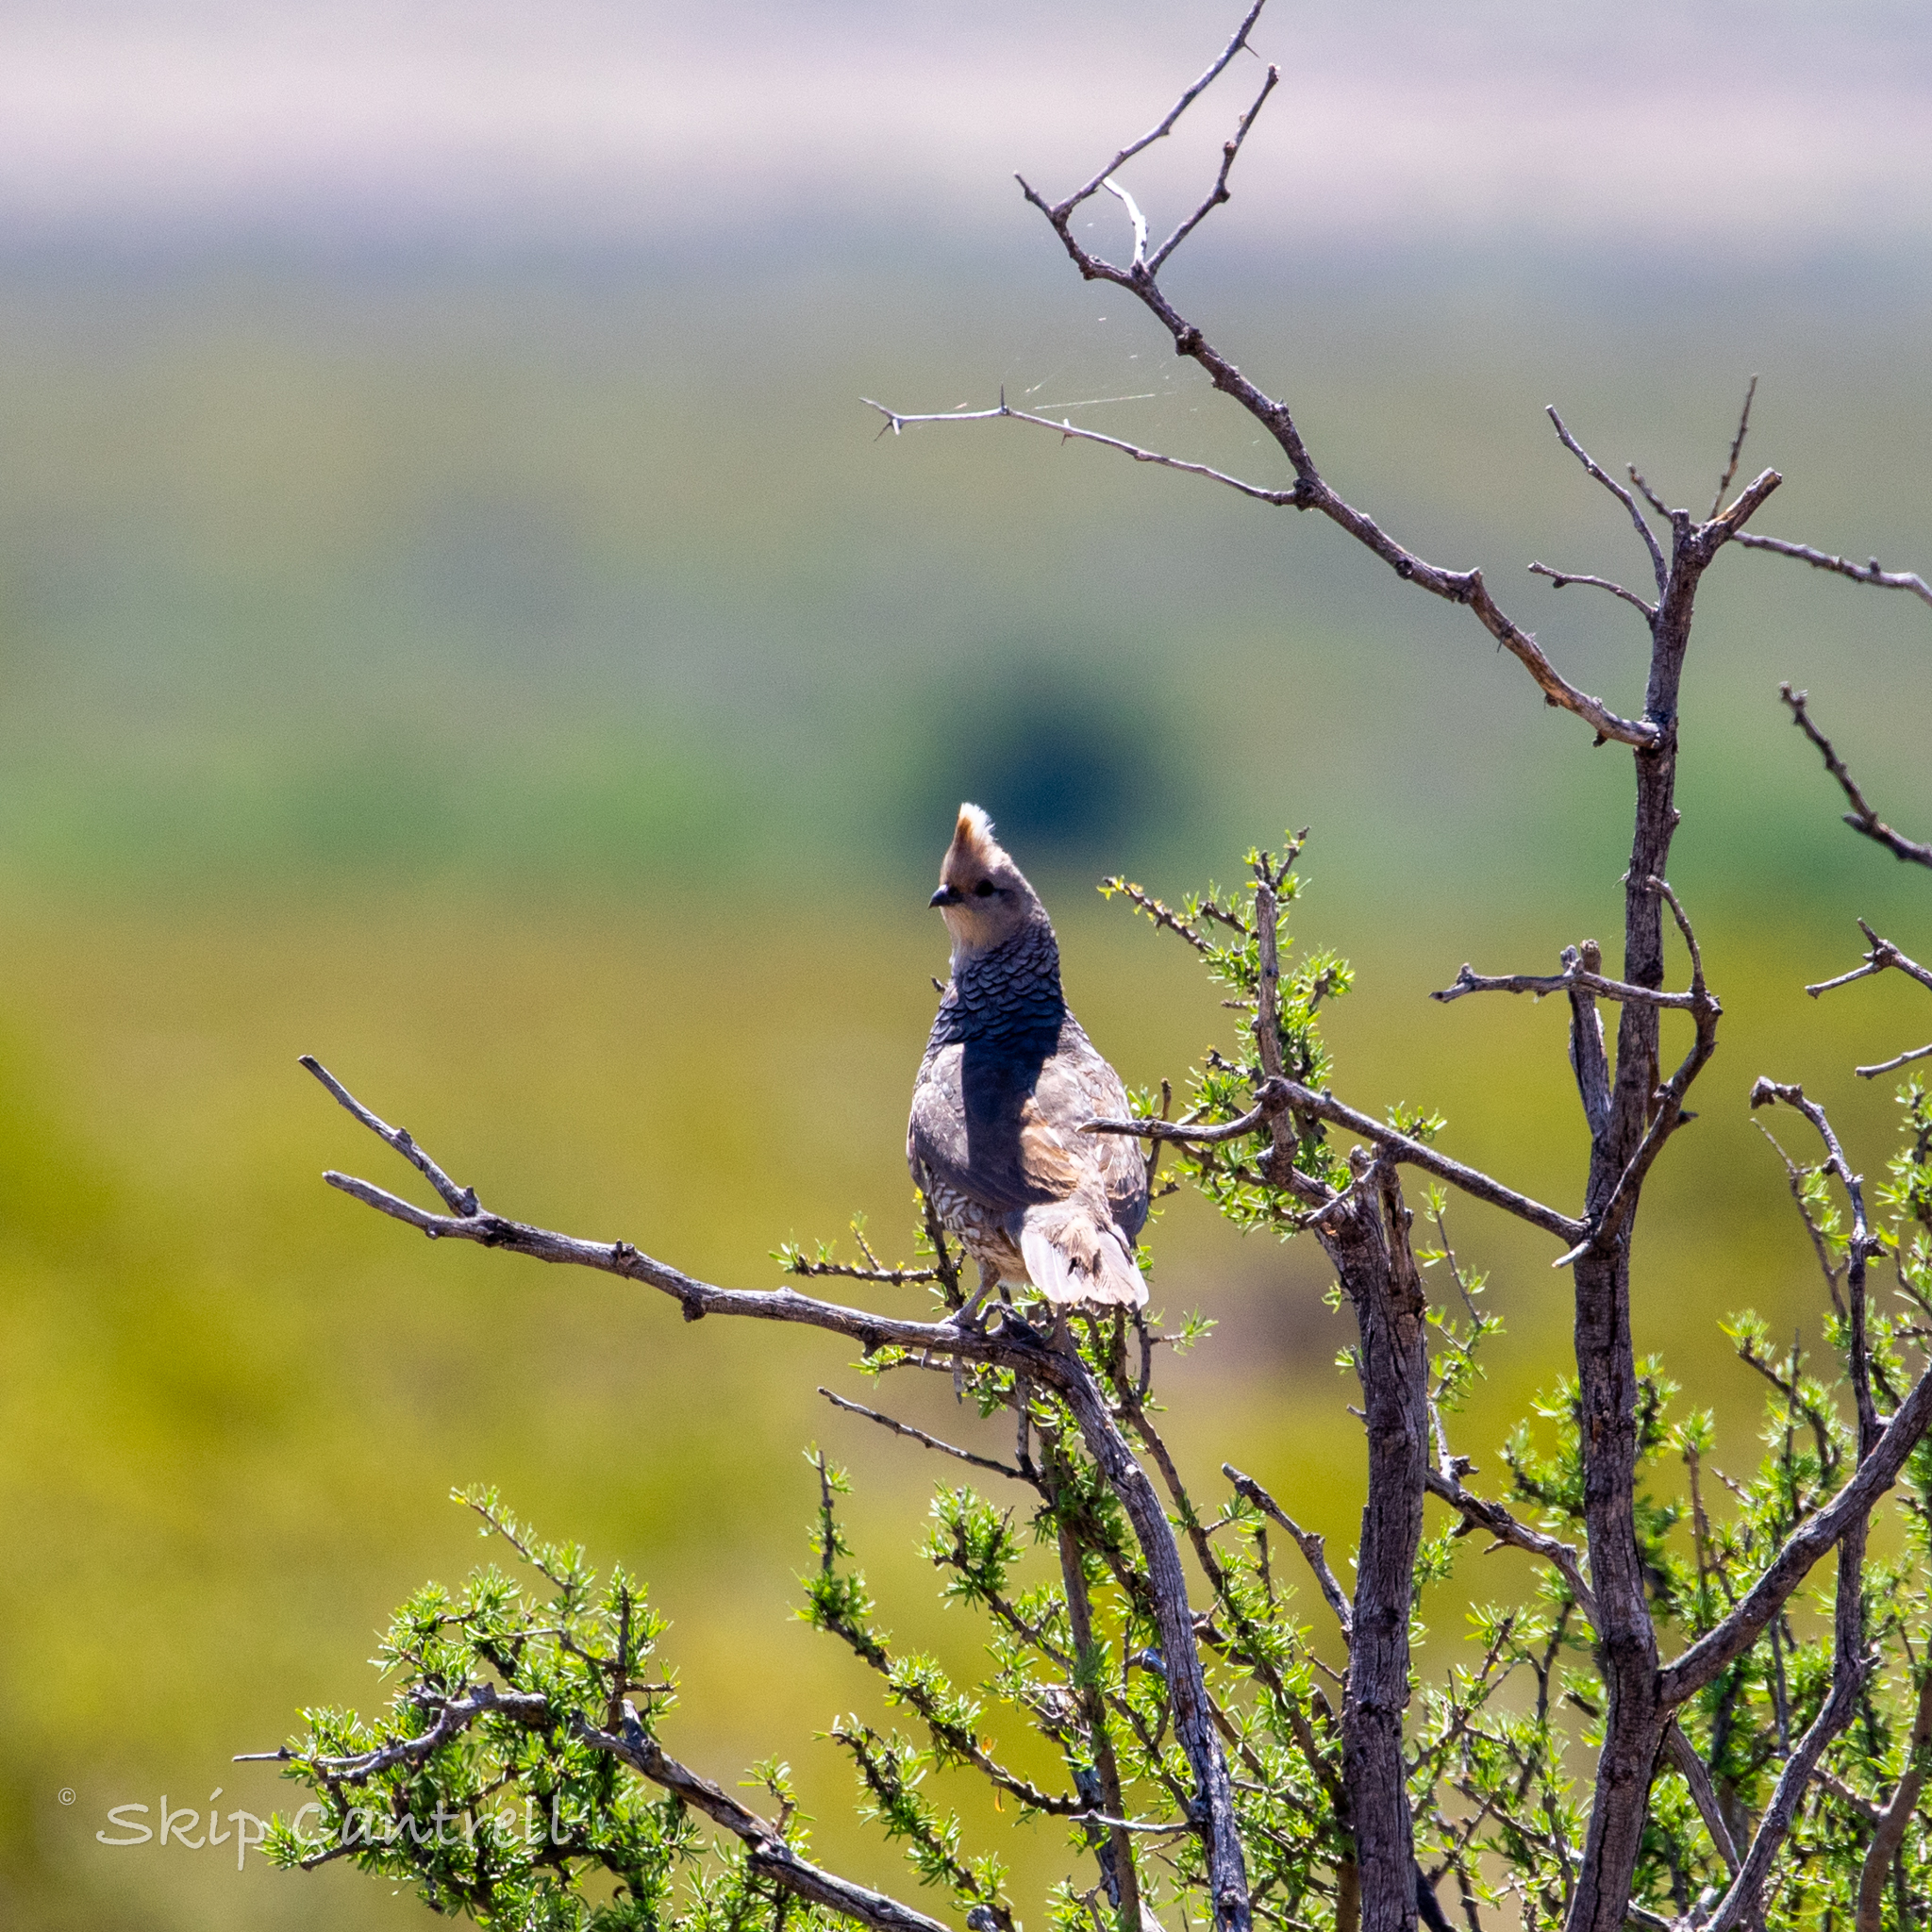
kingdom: Animalia
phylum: Chordata
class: Aves
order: Galliformes
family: Odontophoridae
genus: Callipepla
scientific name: Callipepla squamata
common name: Scaled quail
